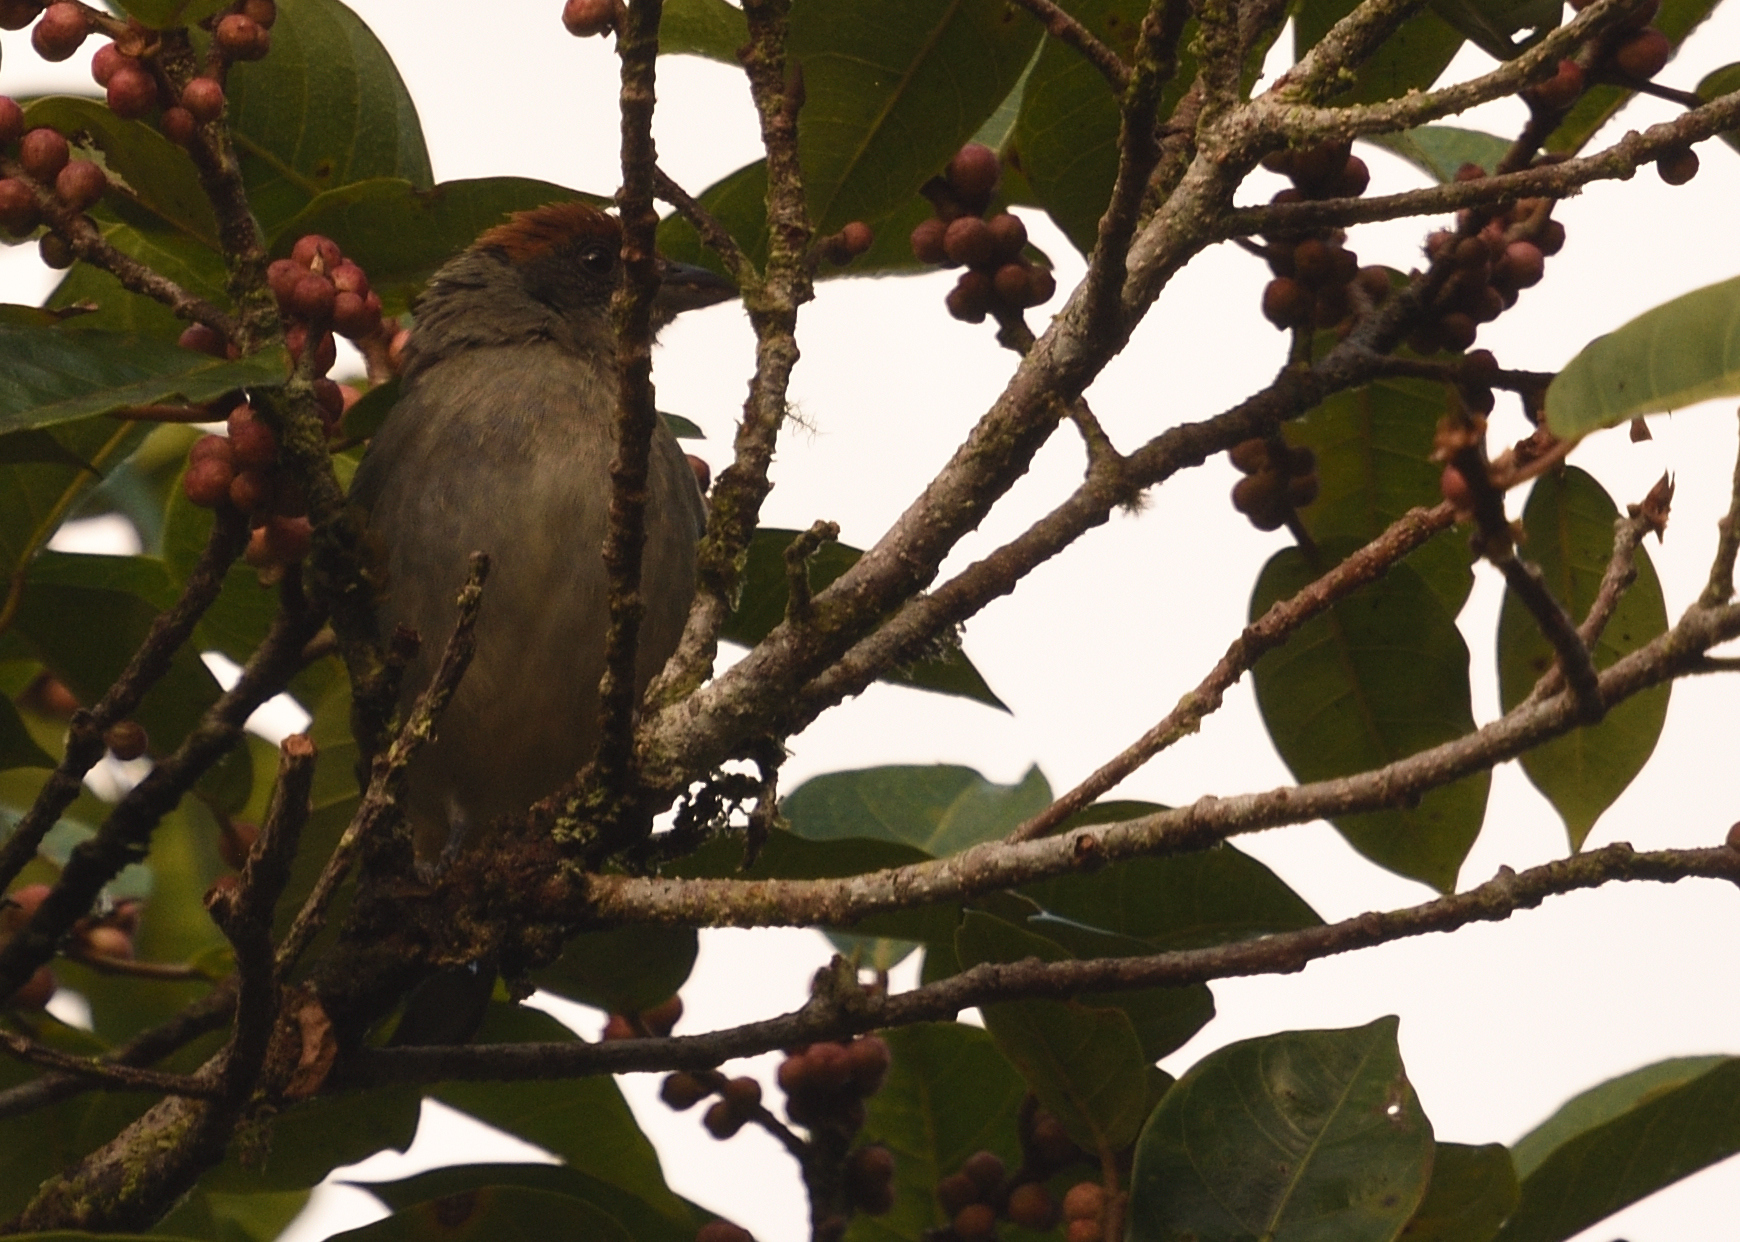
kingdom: Animalia
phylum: Chordata
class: Aves
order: Passeriformes
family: Thraupidae
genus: Stilpnia
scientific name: Stilpnia vitriolina
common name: Scrub tanager
